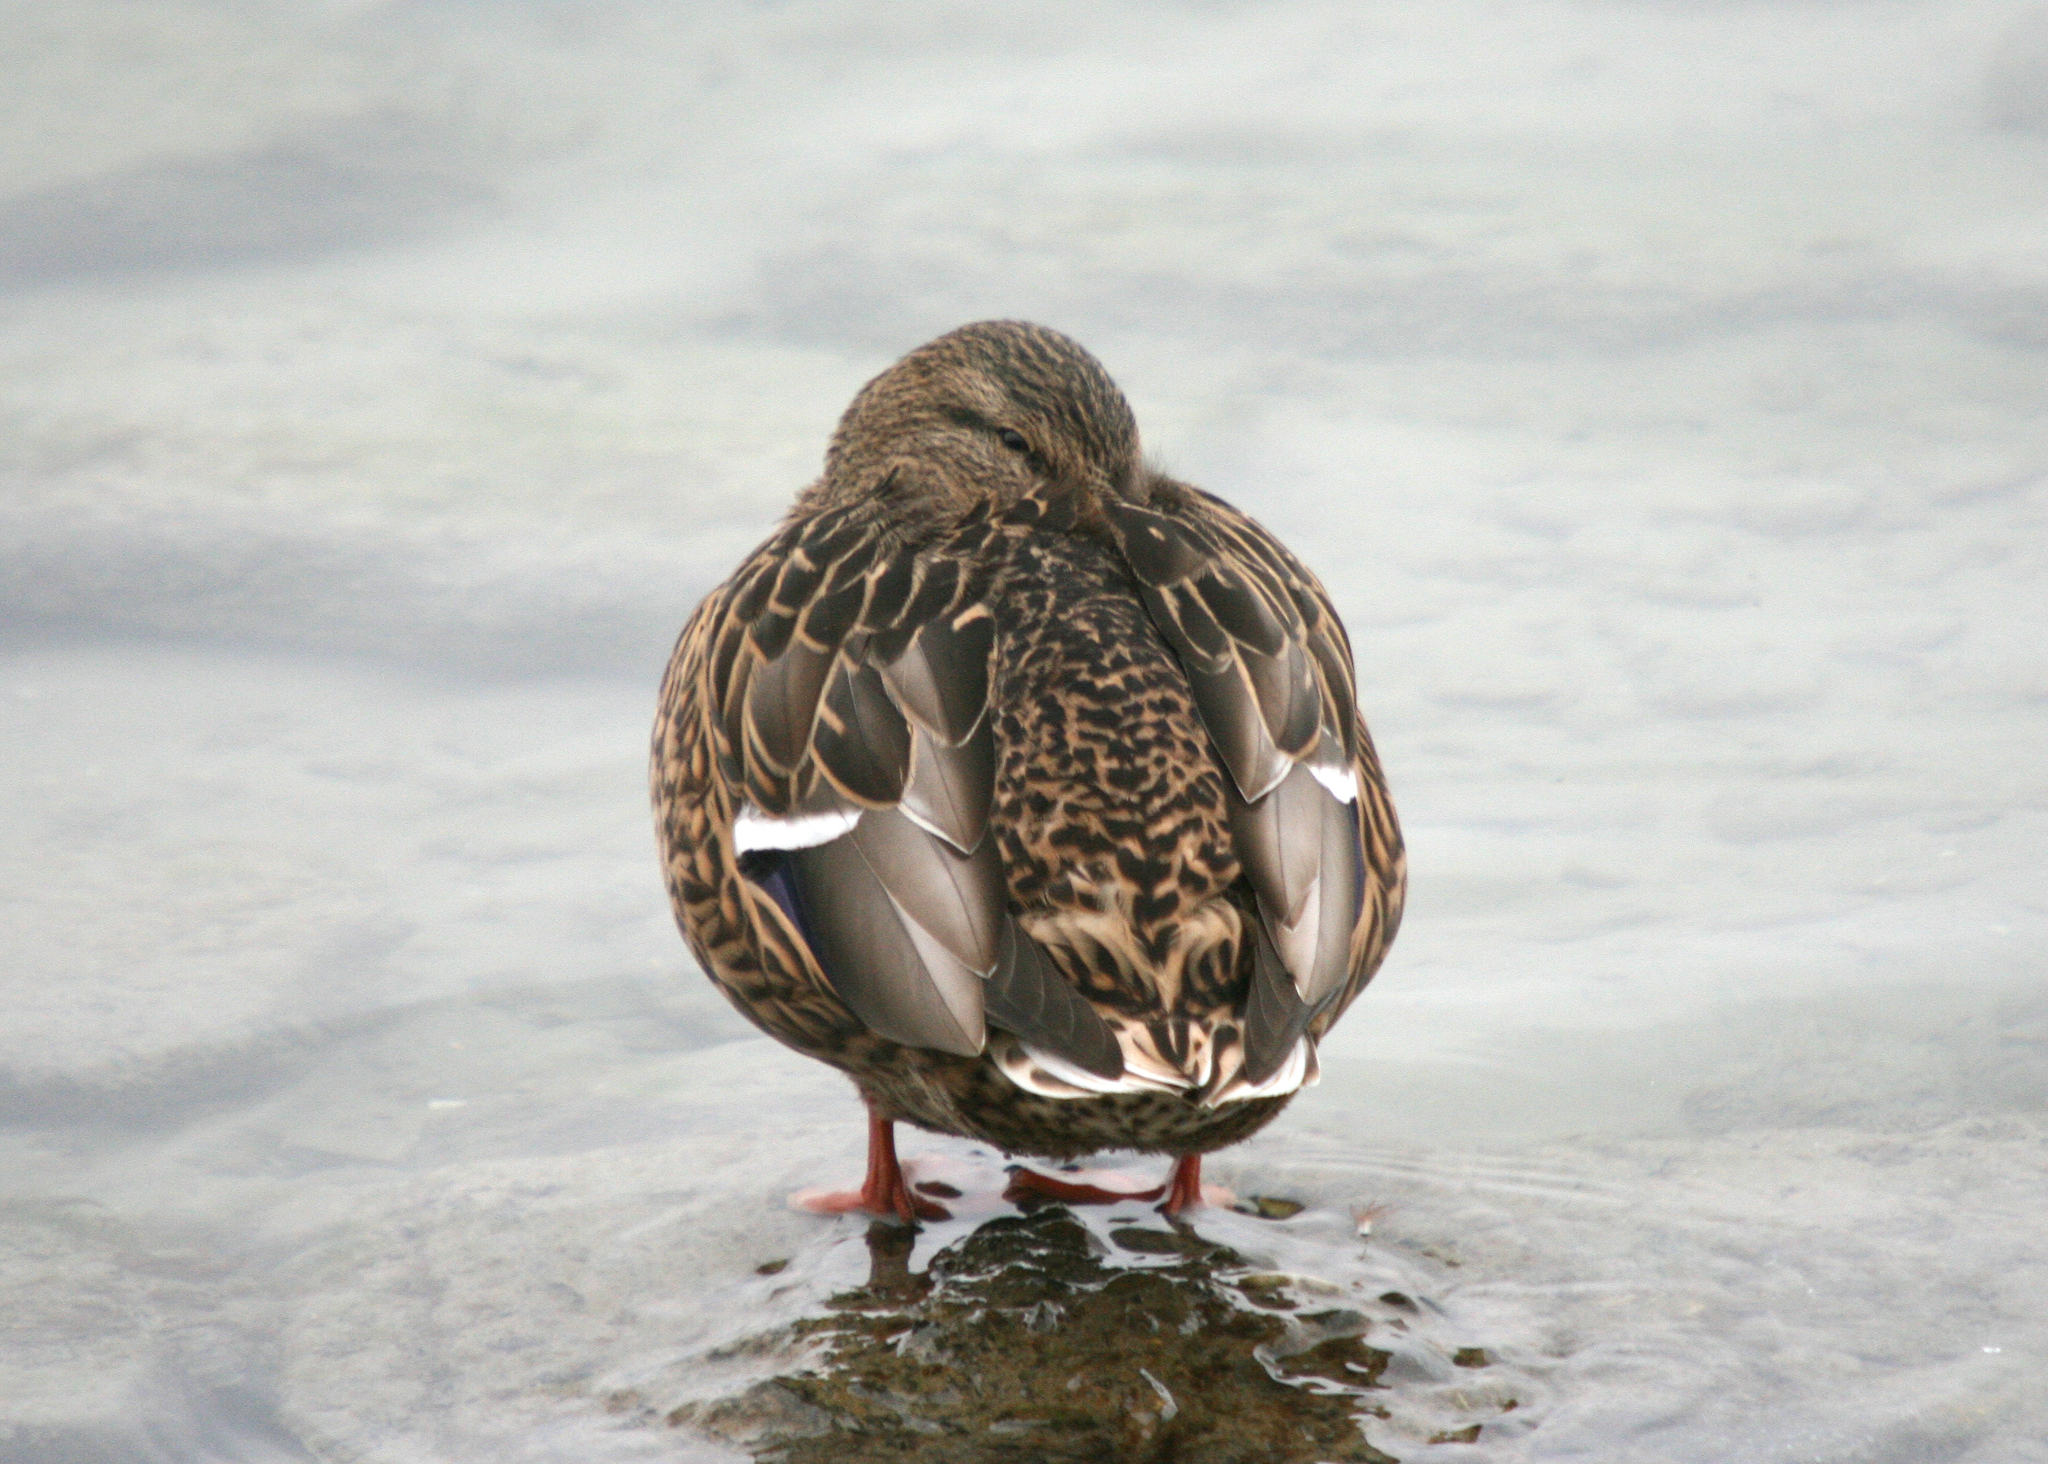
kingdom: Animalia
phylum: Chordata
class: Aves
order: Anseriformes
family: Anatidae
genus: Anas
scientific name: Anas platyrhynchos
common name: Mallard
